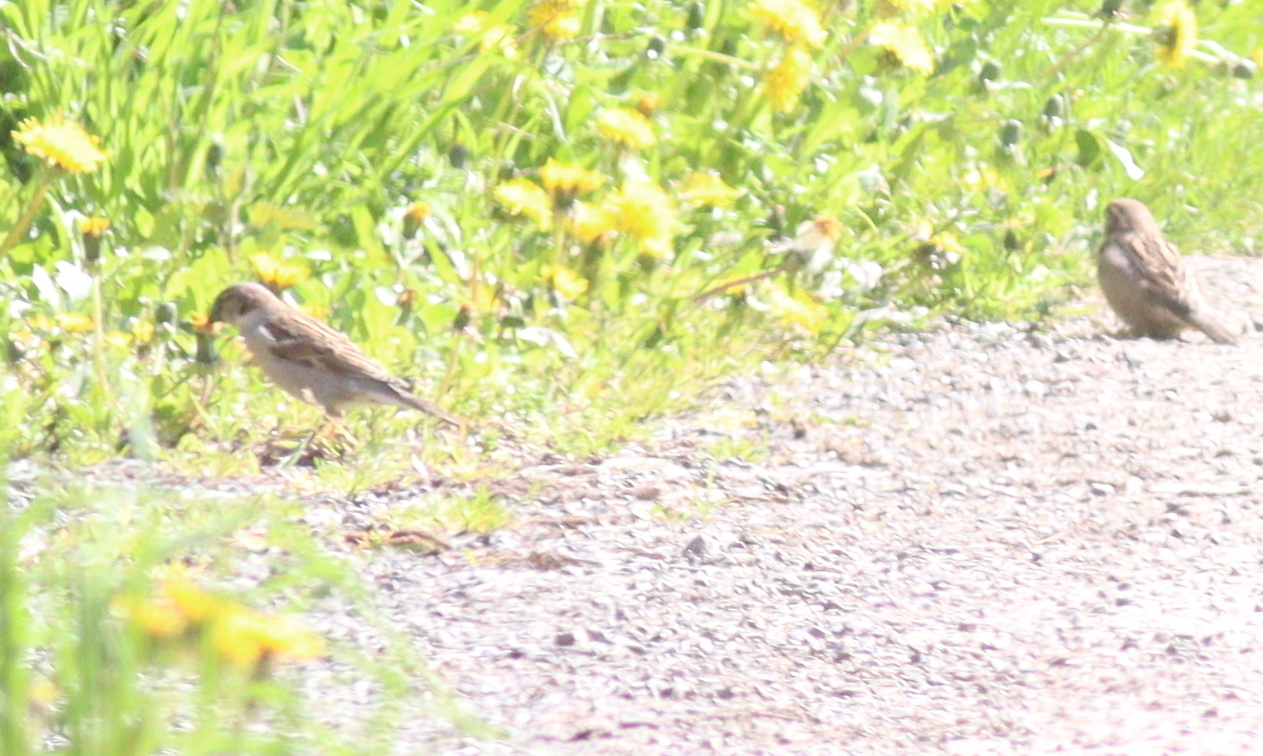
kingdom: Animalia
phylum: Chordata
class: Aves
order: Passeriformes
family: Passeridae
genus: Passer
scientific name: Passer domesticus
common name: House sparrow
